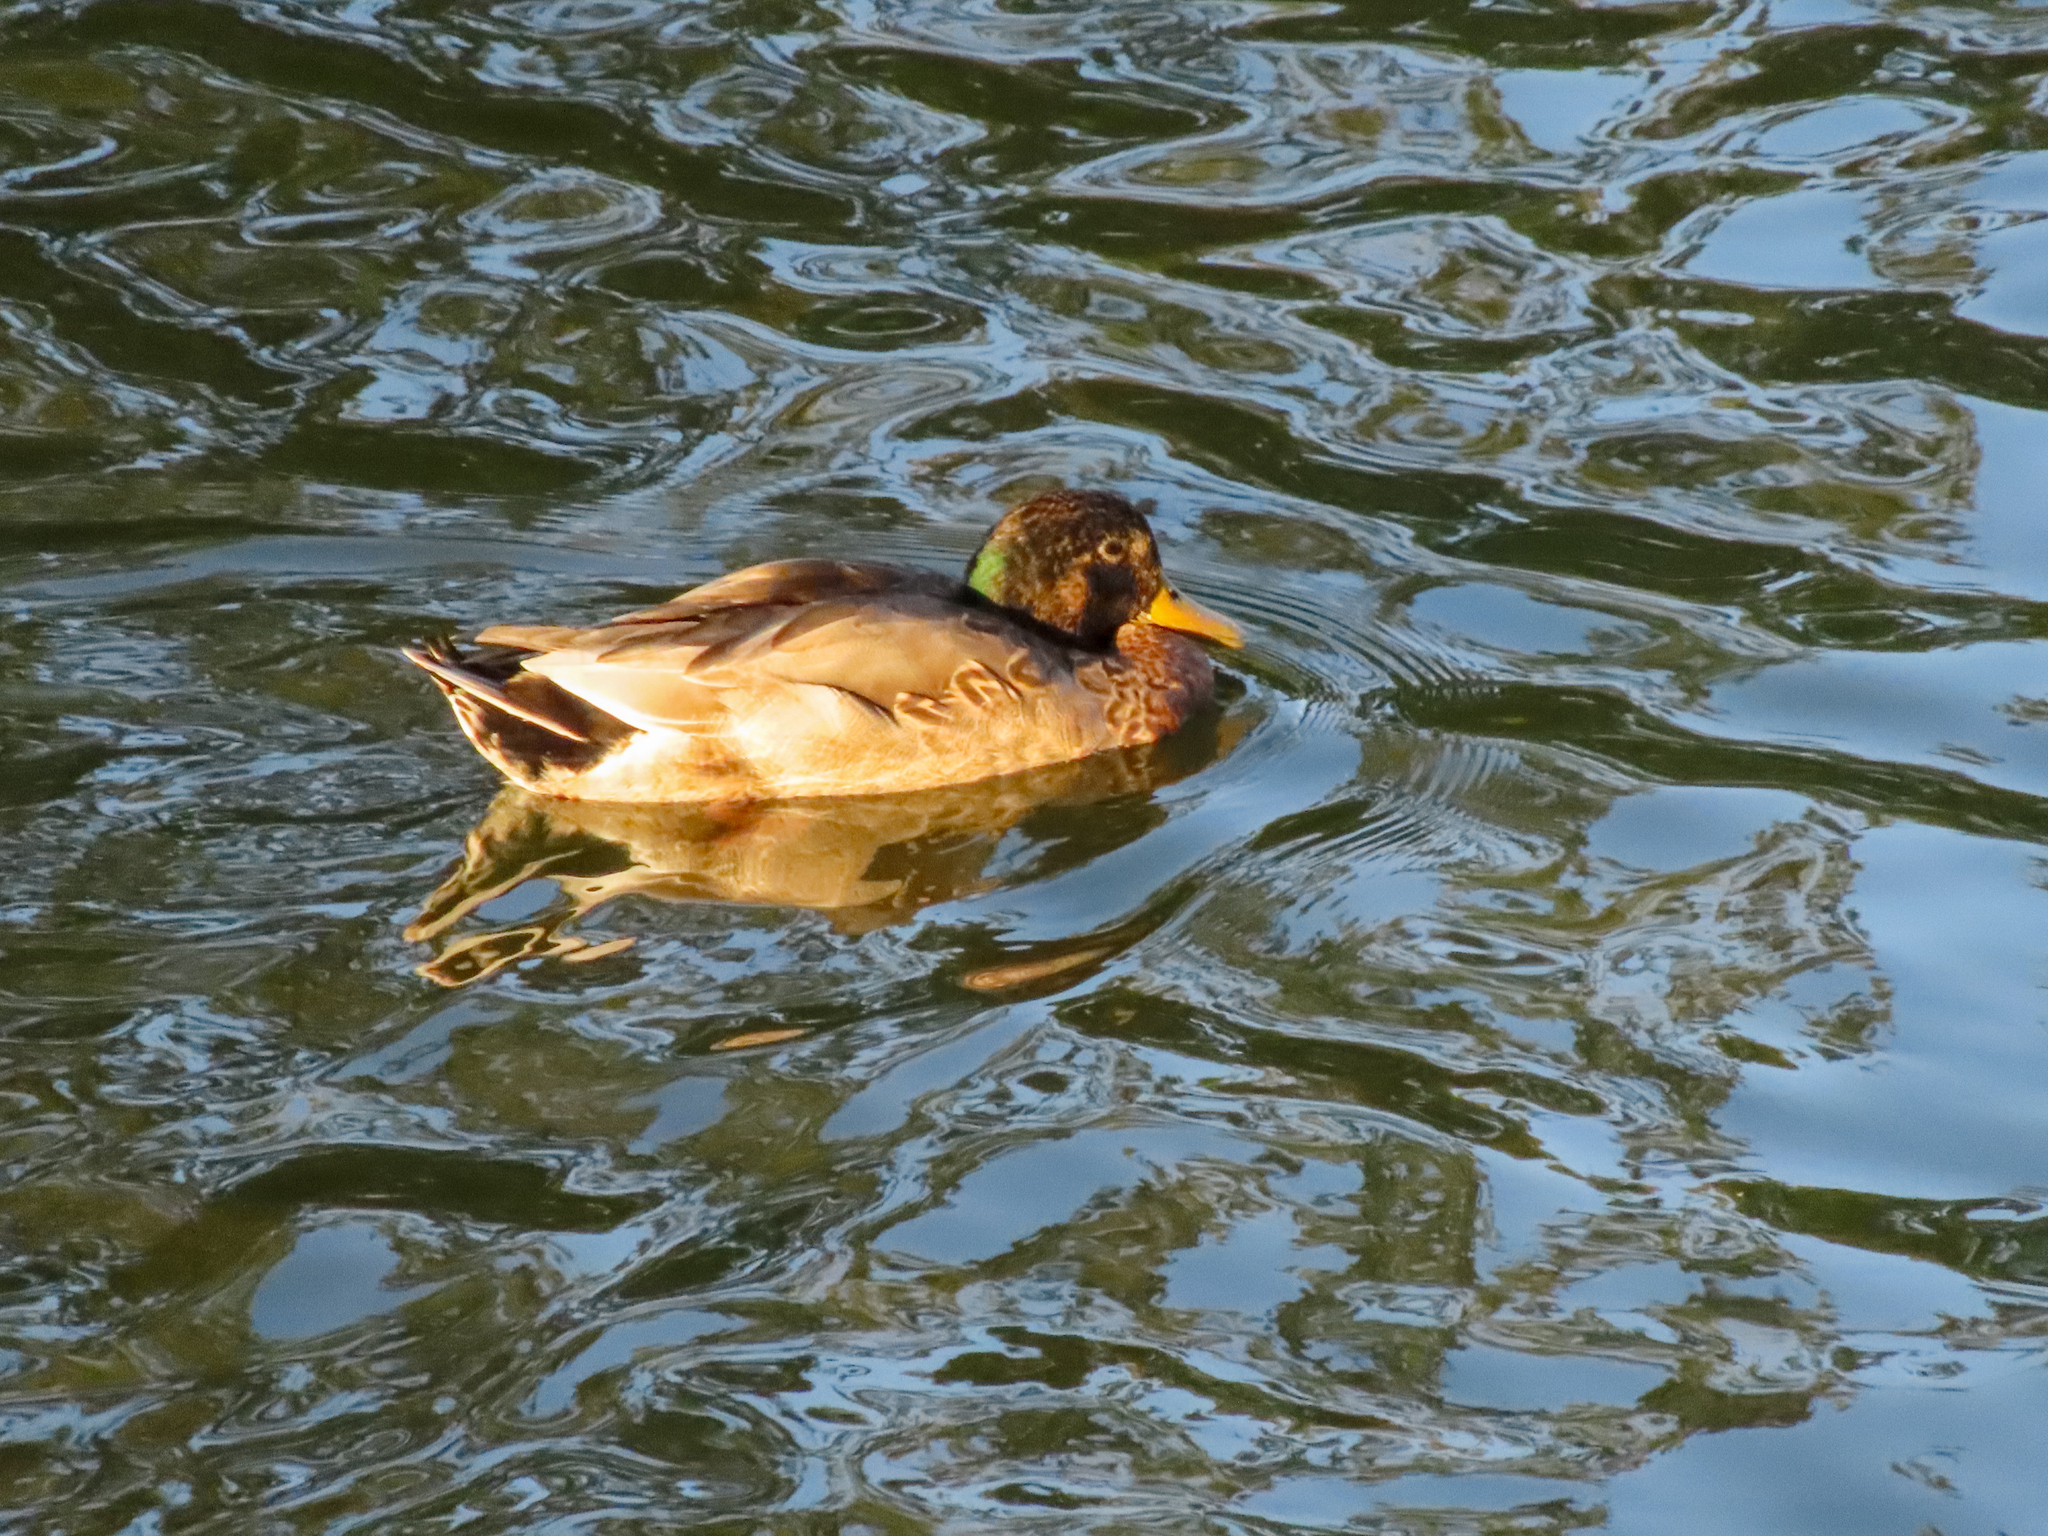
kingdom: Animalia
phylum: Chordata
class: Aves
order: Anseriformes
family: Anatidae
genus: Anas
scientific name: Anas platyrhynchos
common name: Mallard
